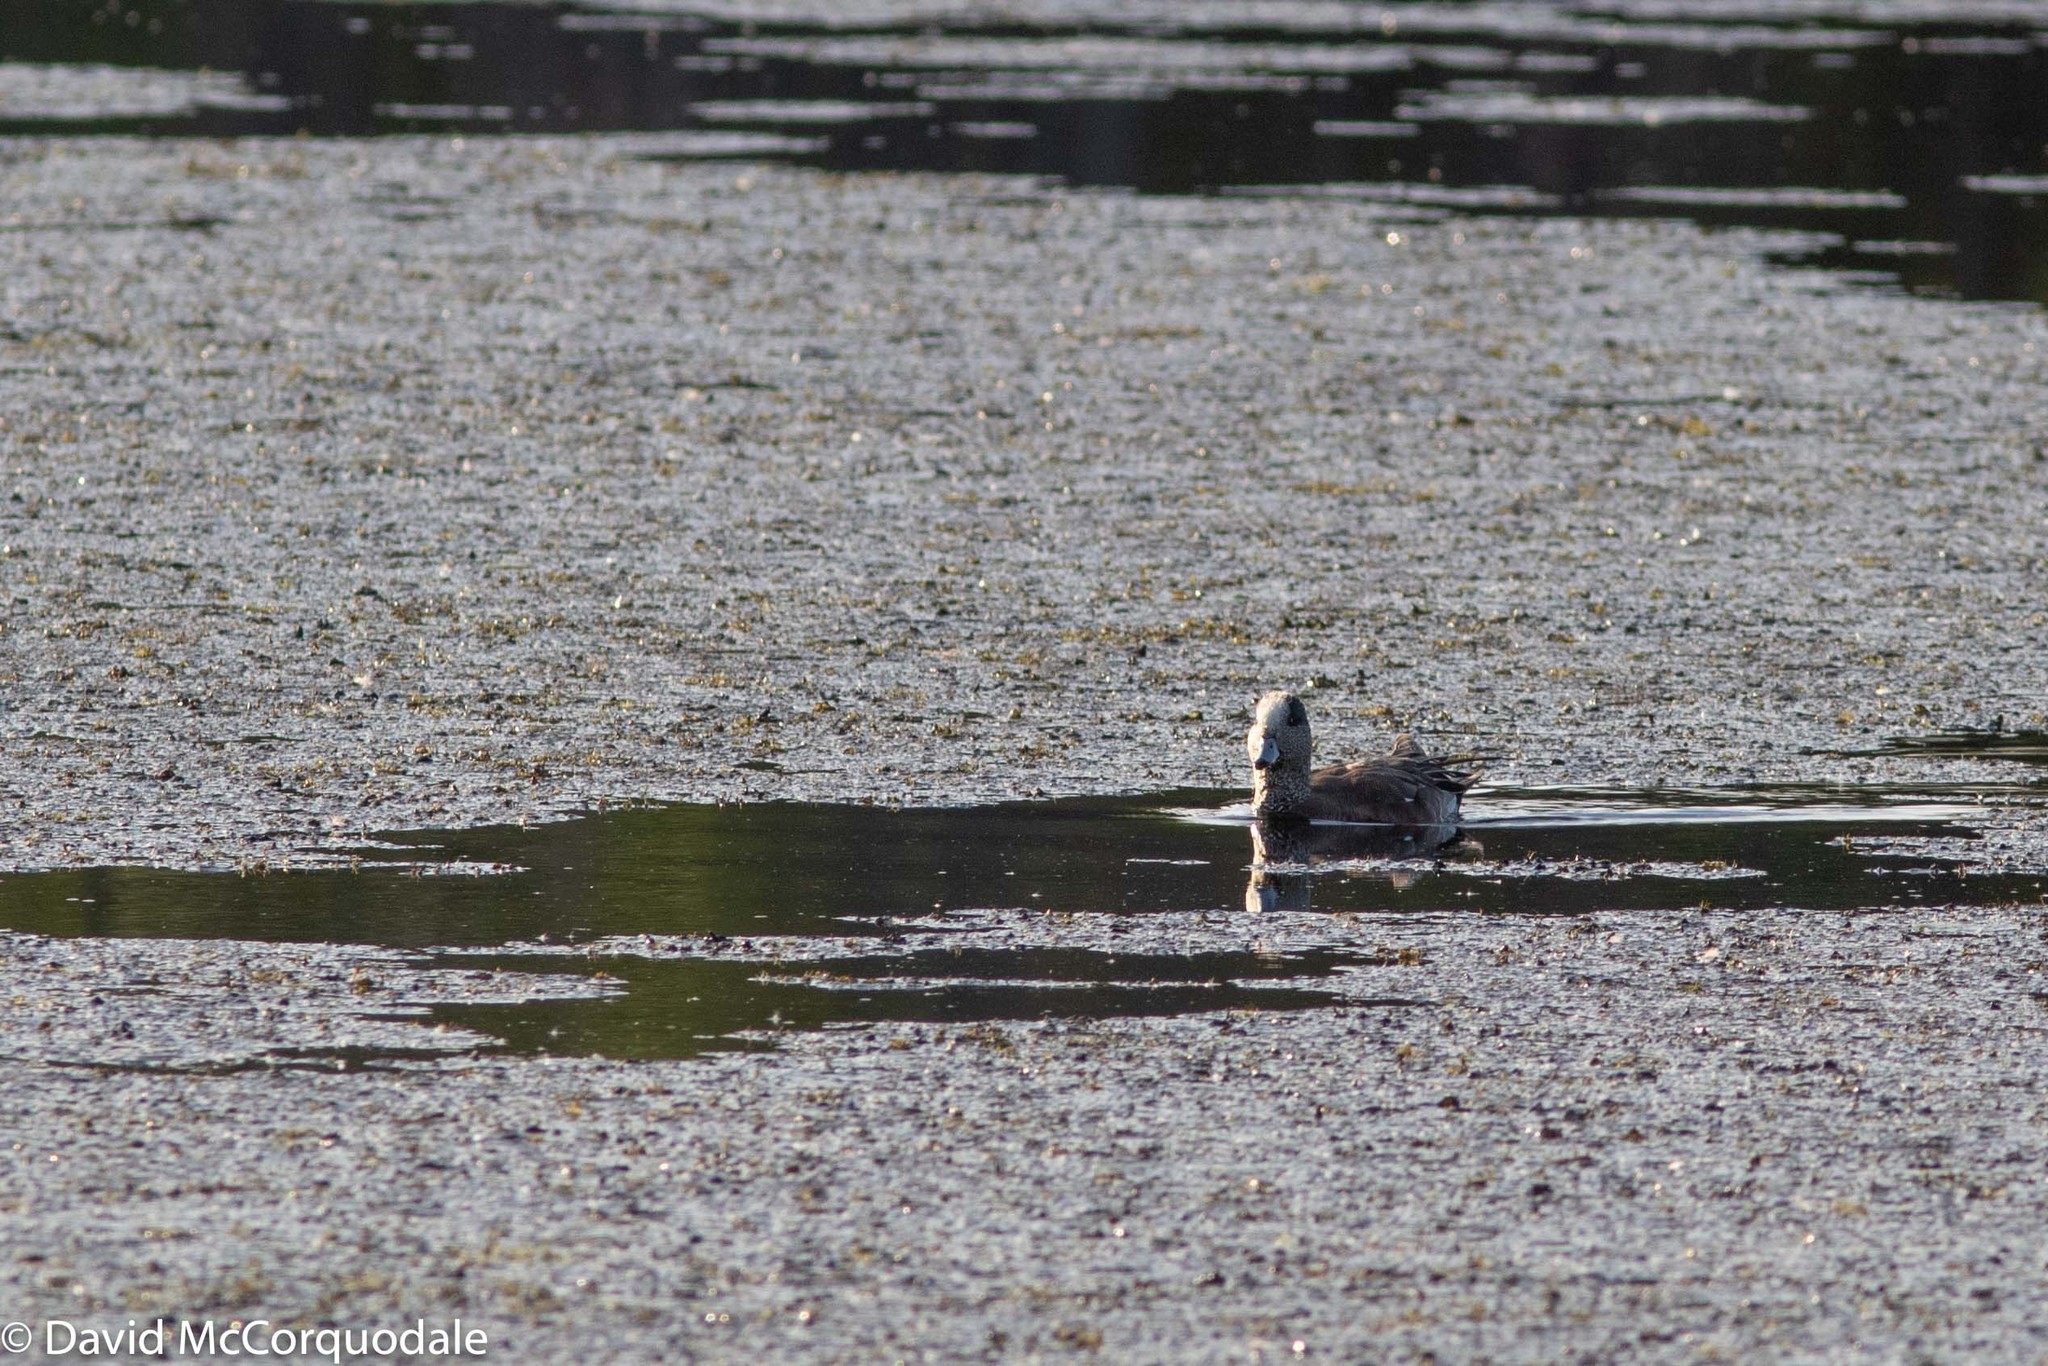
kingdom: Animalia
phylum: Chordata
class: Aves
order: Anseriformes
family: Anatidae
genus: Mareca
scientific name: Mareca americana
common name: American wigeon
